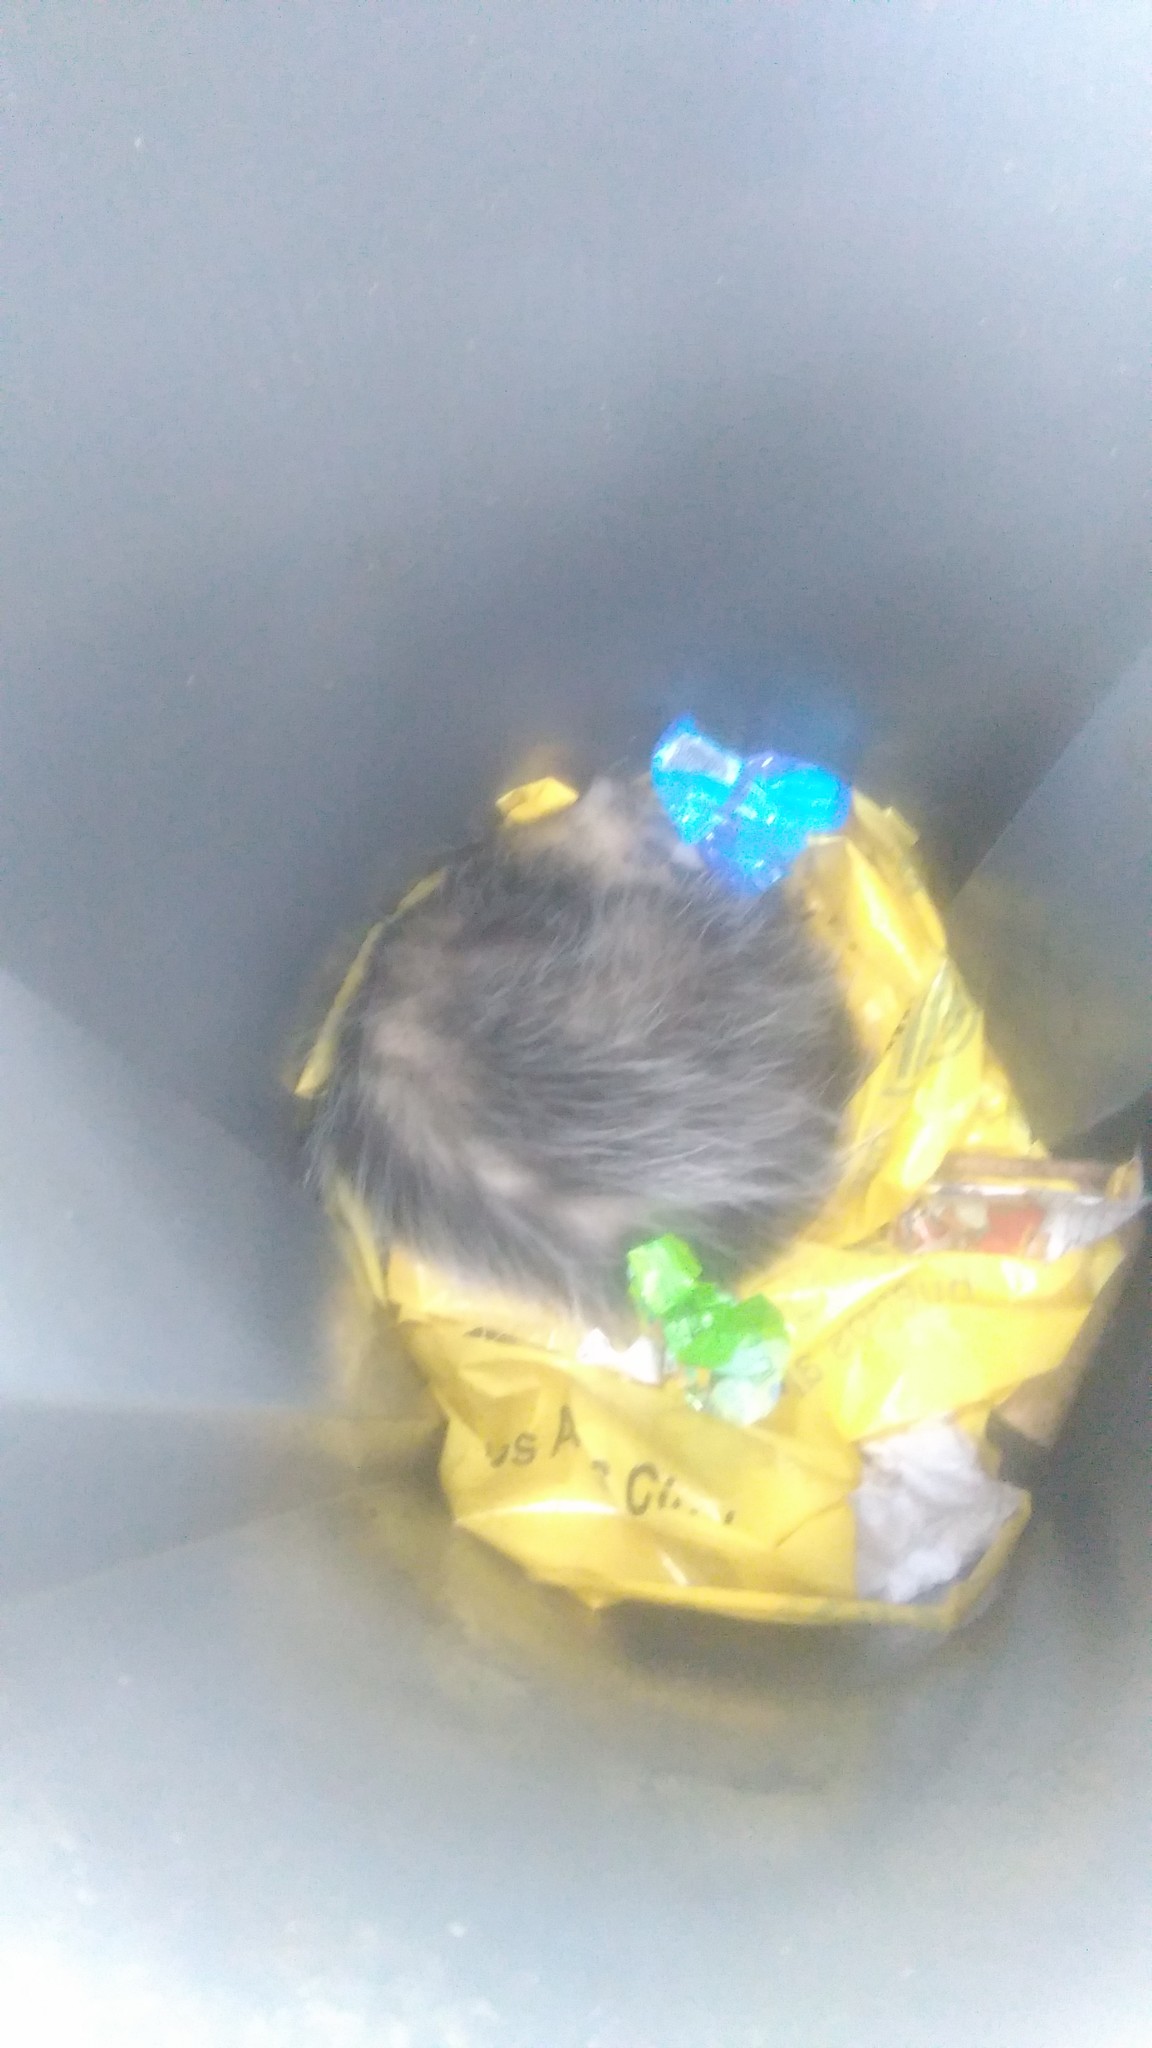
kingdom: Animalia
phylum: Chordata
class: Mammalia
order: Didelphimorphia
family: Didelphidae
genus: Didelphis
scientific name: Didelphis albiventris
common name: White-eared opossum
